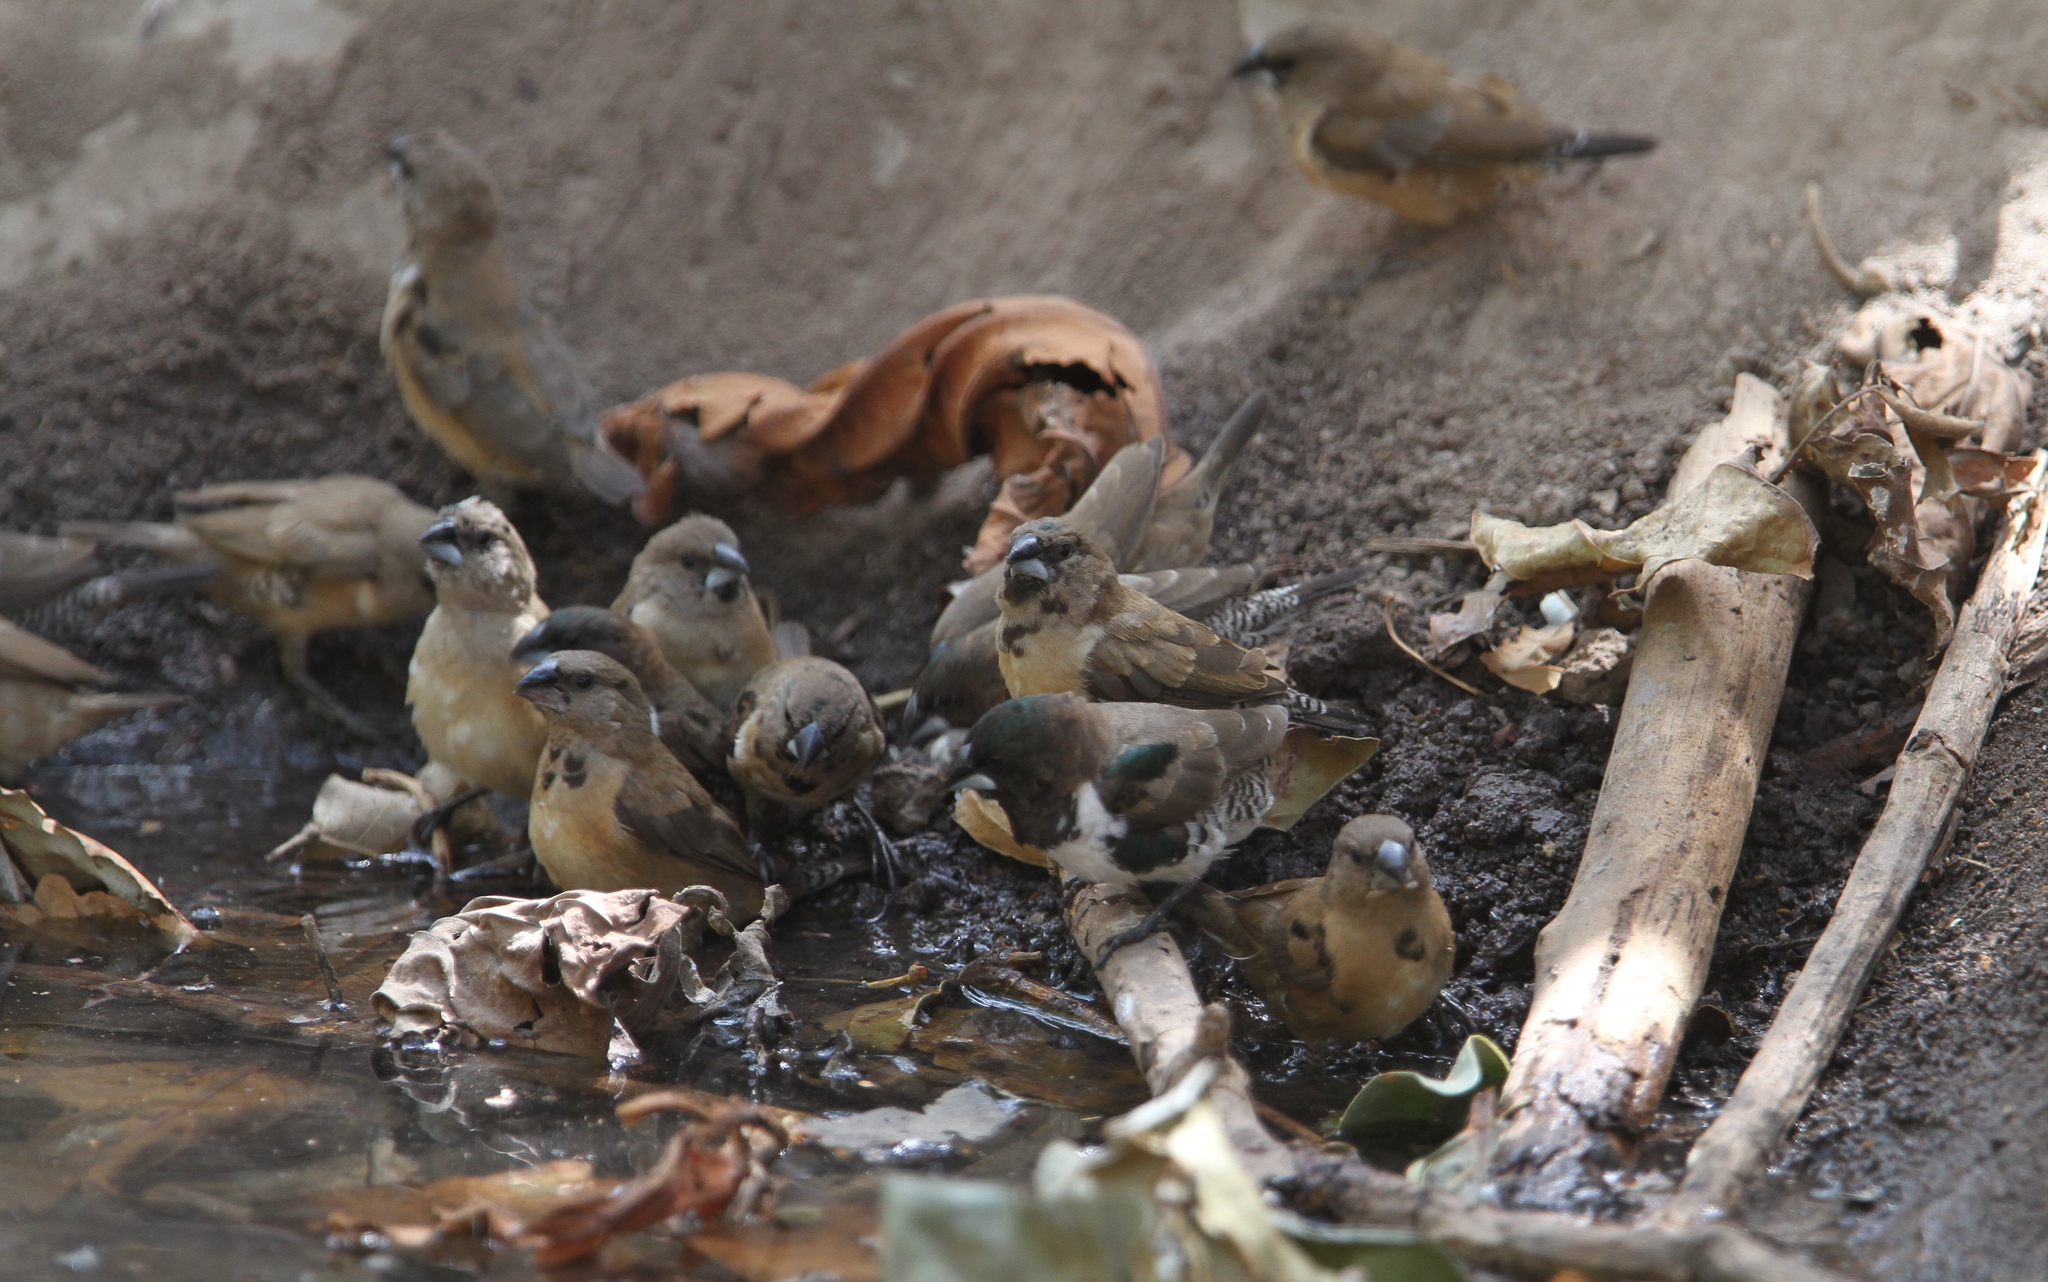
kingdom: Animalia
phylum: Chordata
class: Aves
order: Passeriformes
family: Estrildidae
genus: Lonchura
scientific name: Lonchura cucullata
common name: Bronze mannikin
